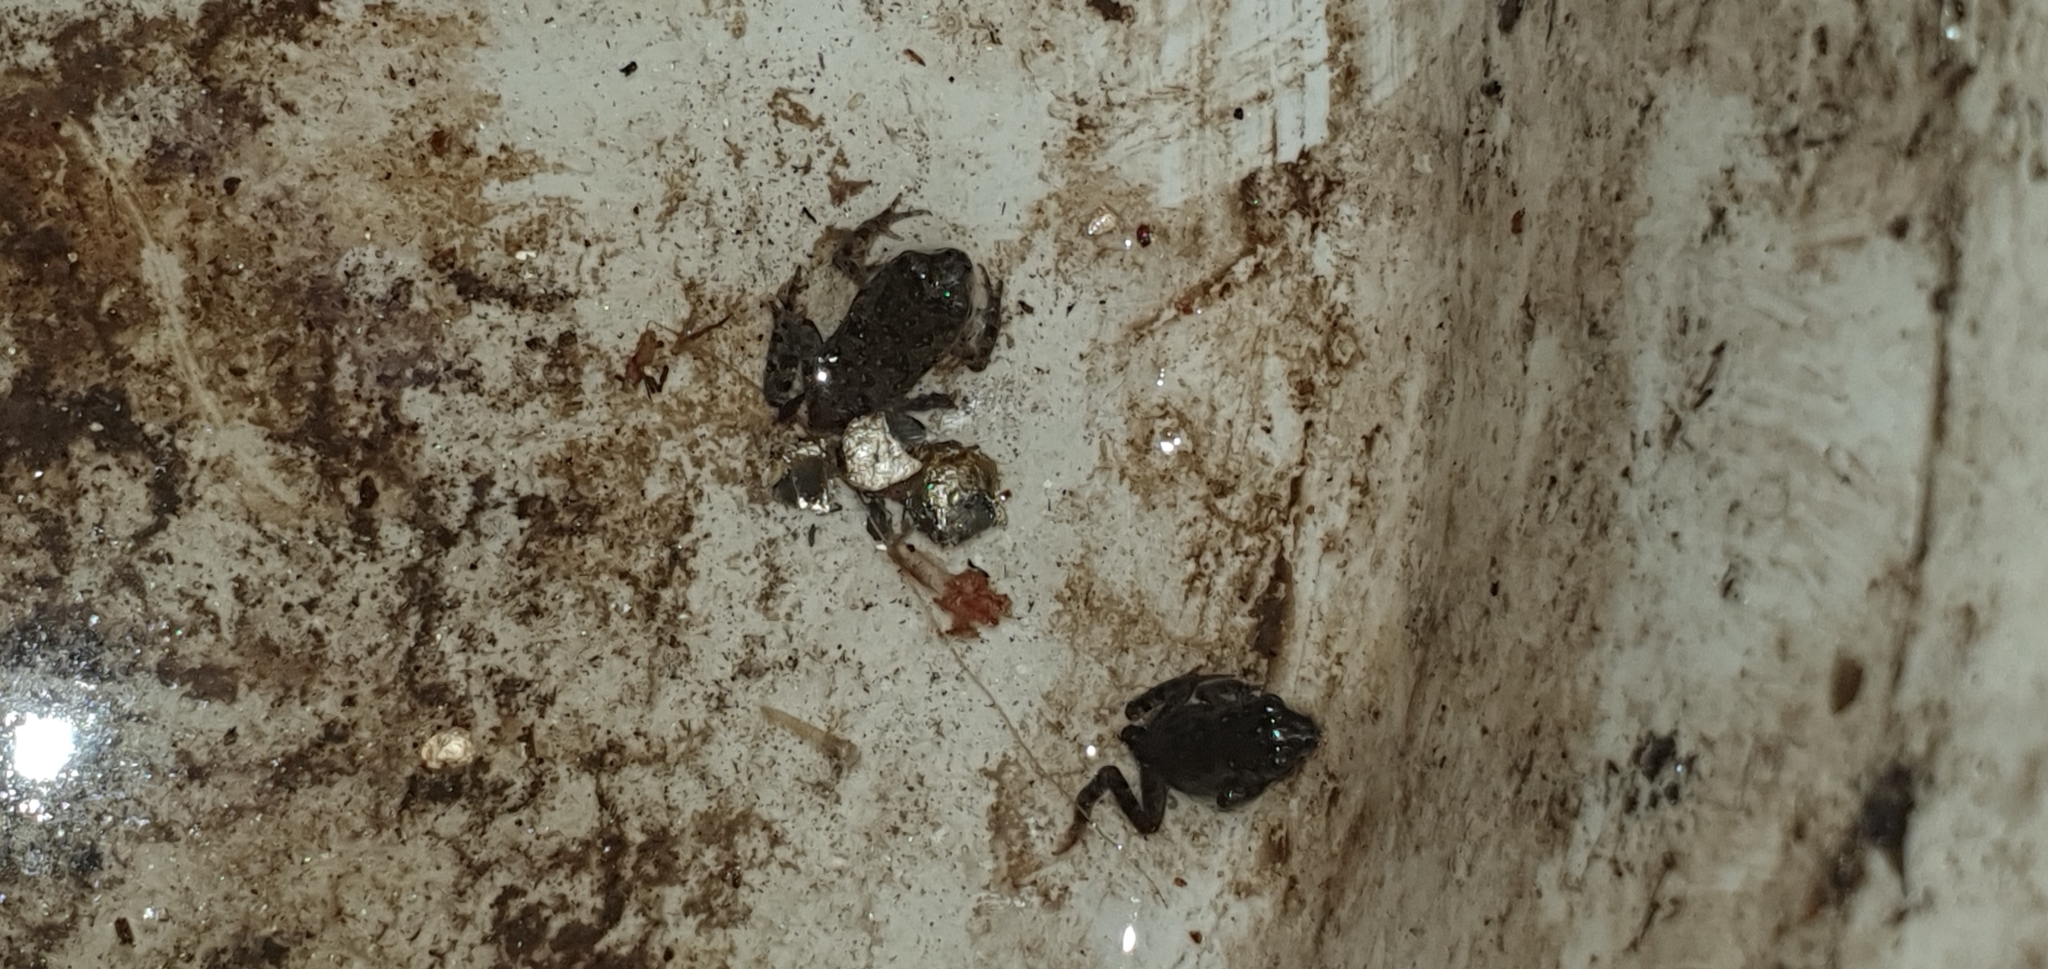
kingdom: Animalia
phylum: Chordata
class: Amphibia
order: Anura
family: Bufonidae
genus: Rhinella
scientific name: Rhinella marina
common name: Cane toad
